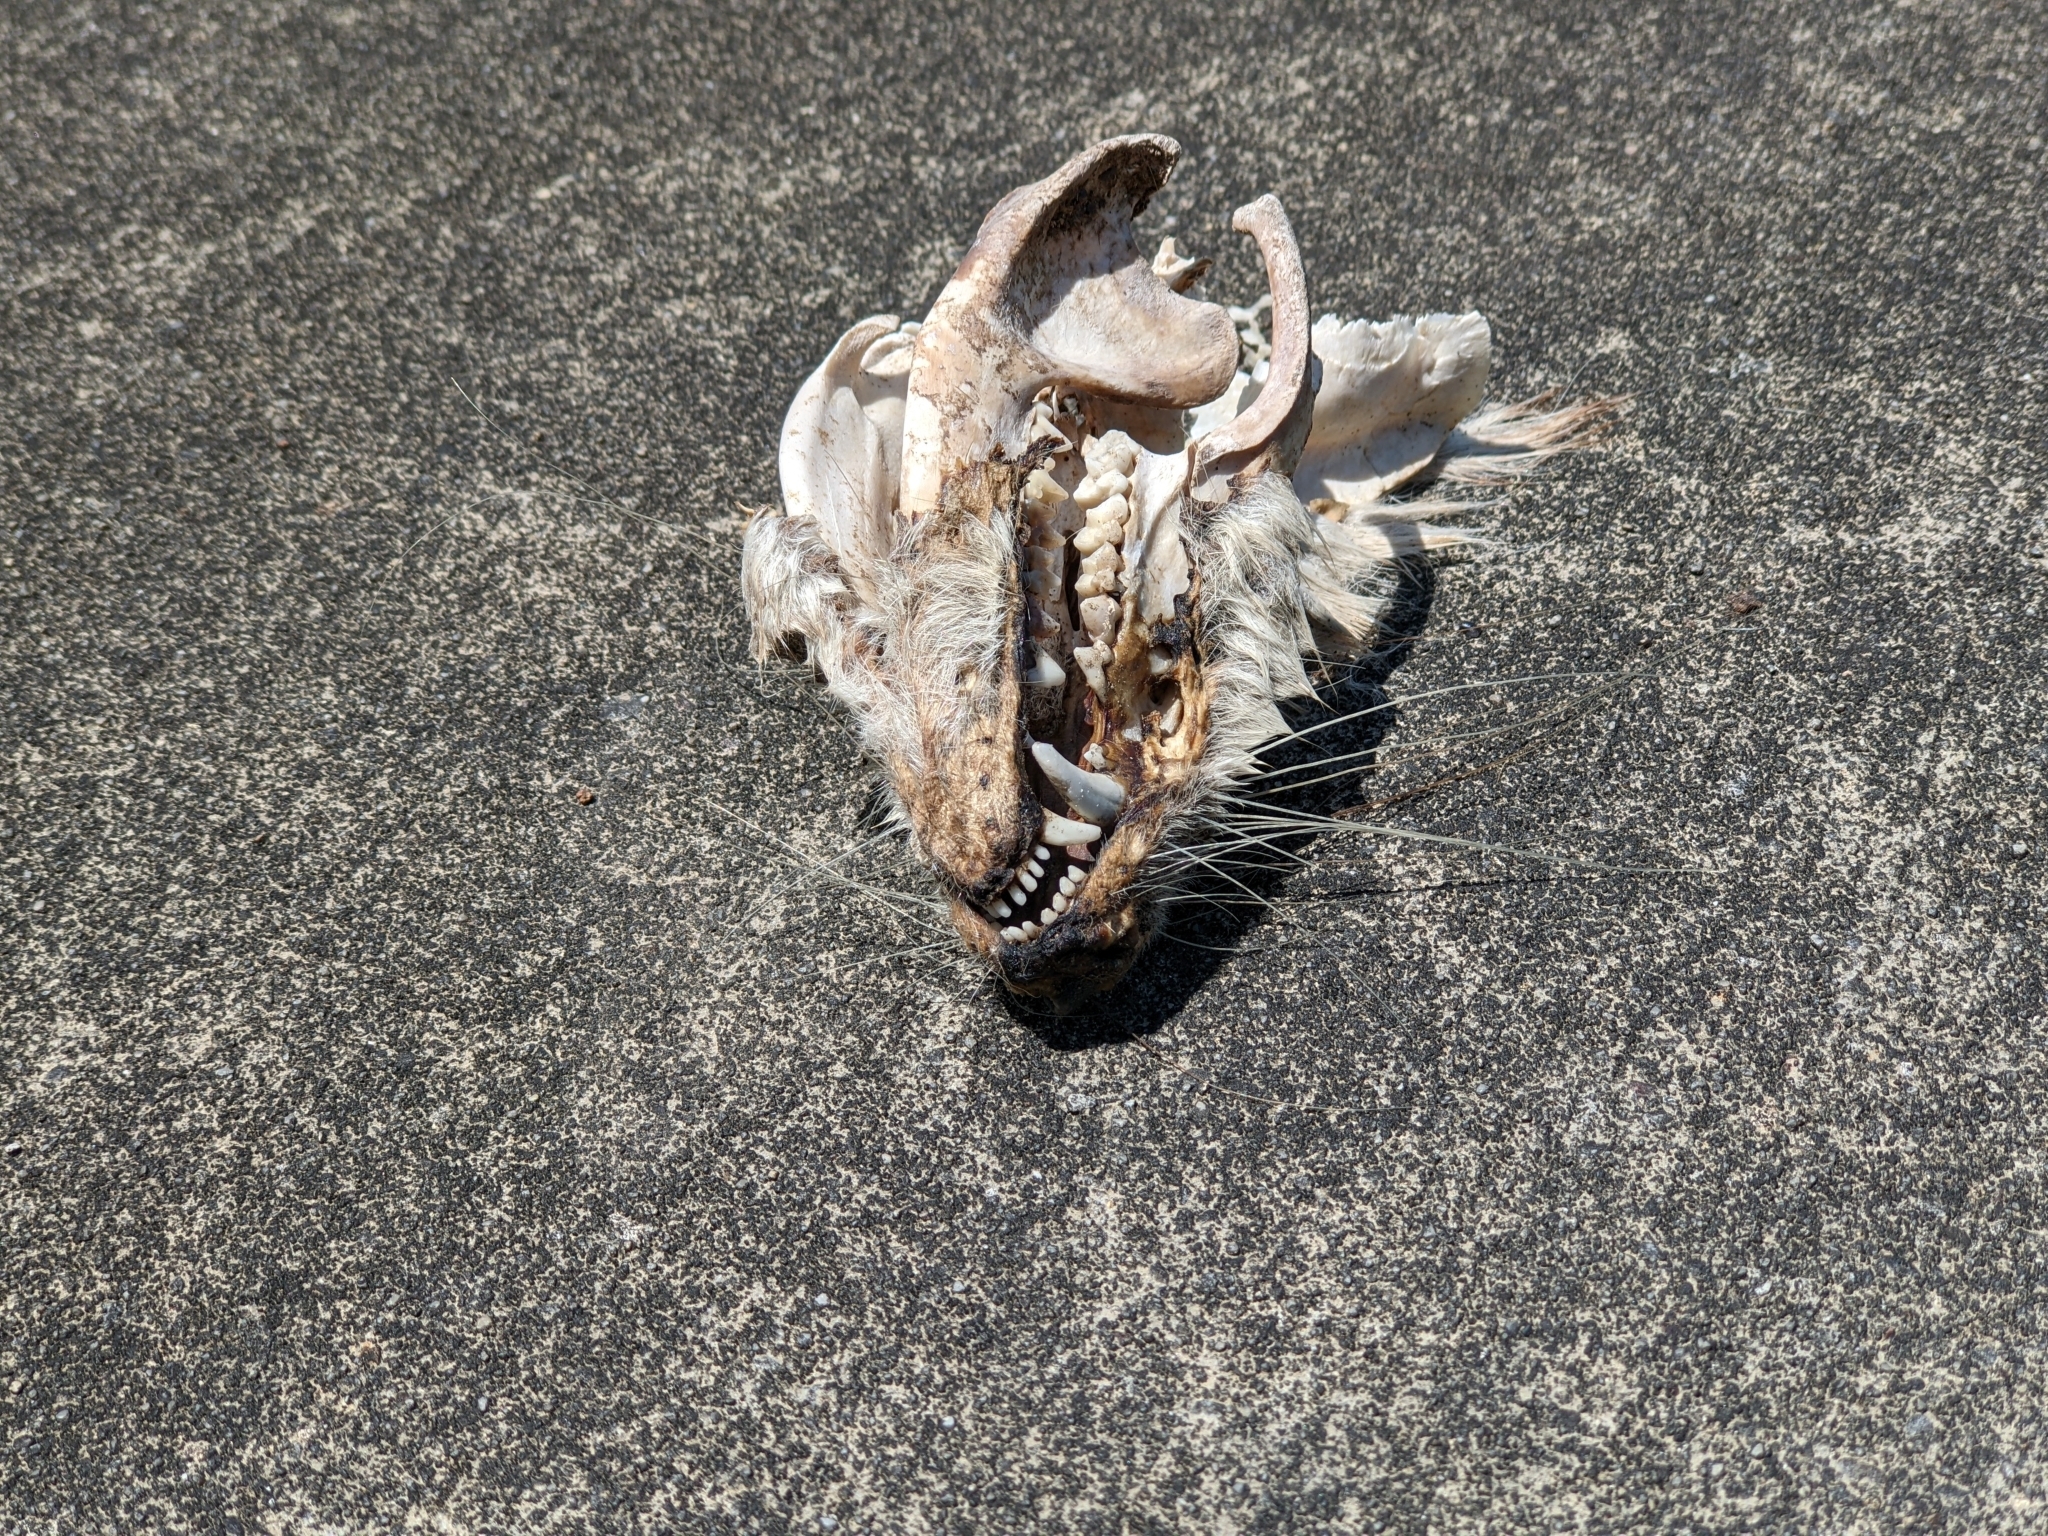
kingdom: Animalia
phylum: Chordata
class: Mammalia
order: Didelphimorphia
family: Didelphidae
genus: Didelphis
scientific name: Didelphis virginiana
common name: Virginia opossum
